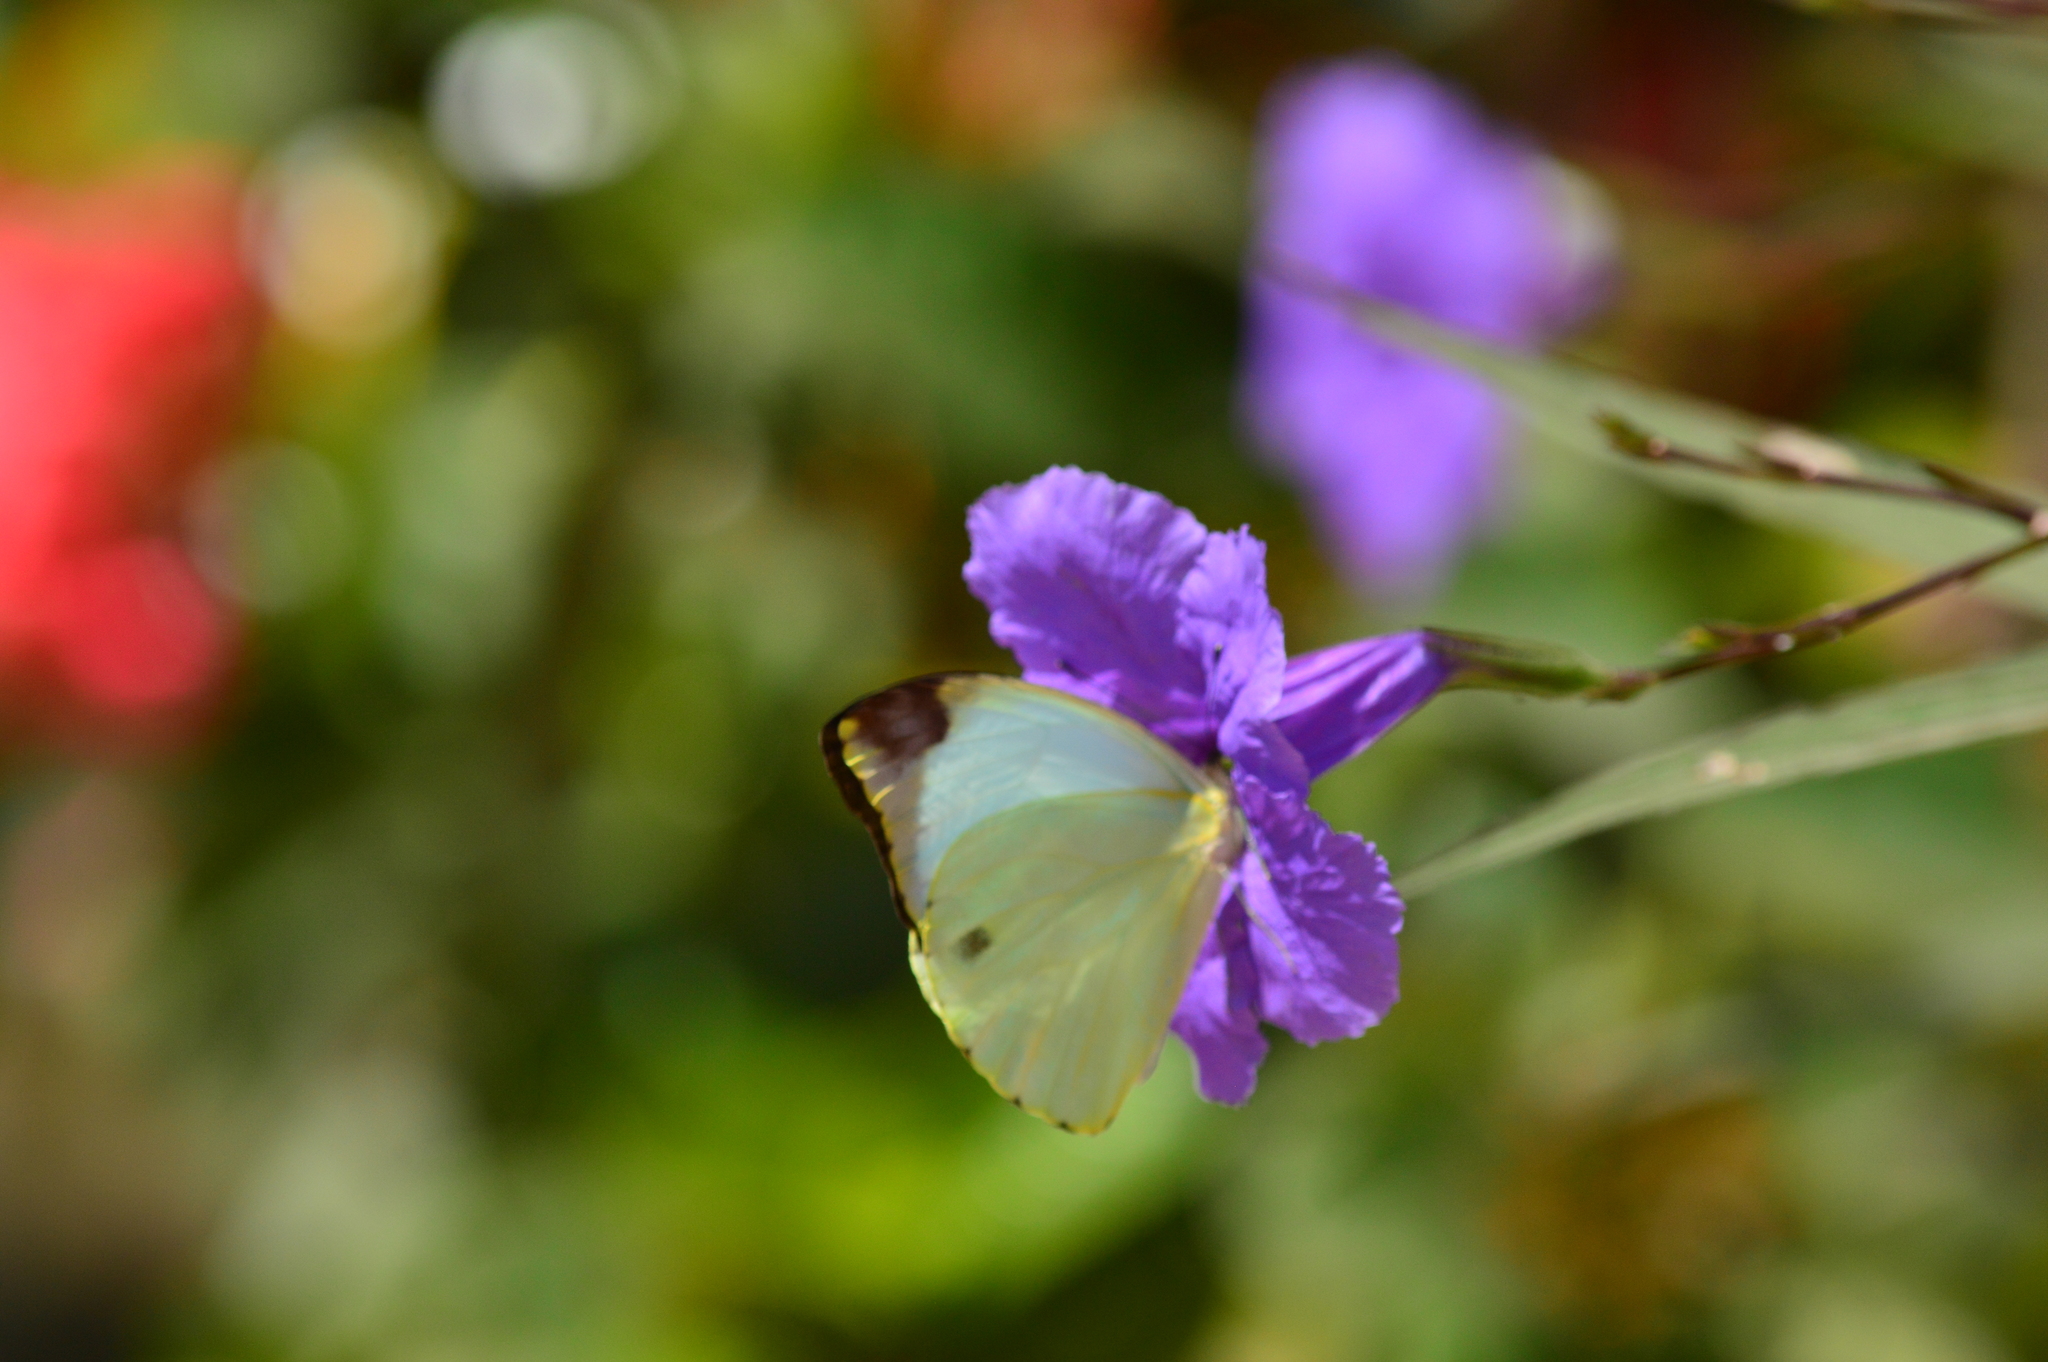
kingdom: Animalia
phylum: Arthropoda
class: Insecta
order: Lepidoptera
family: Pieridae
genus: Nepheronia
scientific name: Nepheronia argia
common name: Large vagrant
